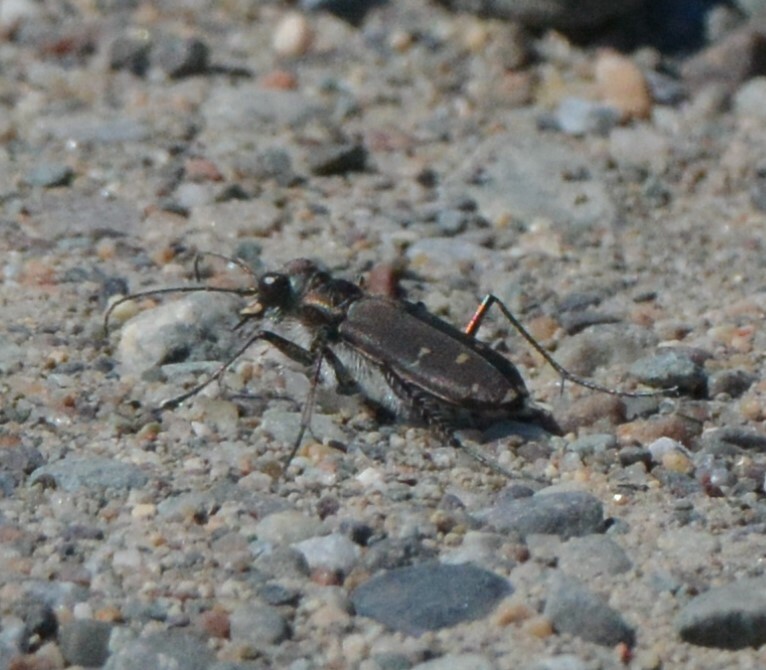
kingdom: Animalia
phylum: Arthropoda
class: Insecta
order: Coleoptera
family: Carabidae
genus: Cicindela
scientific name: Cicindela duodecimguttata
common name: Twelve-spotted tiger beetle
